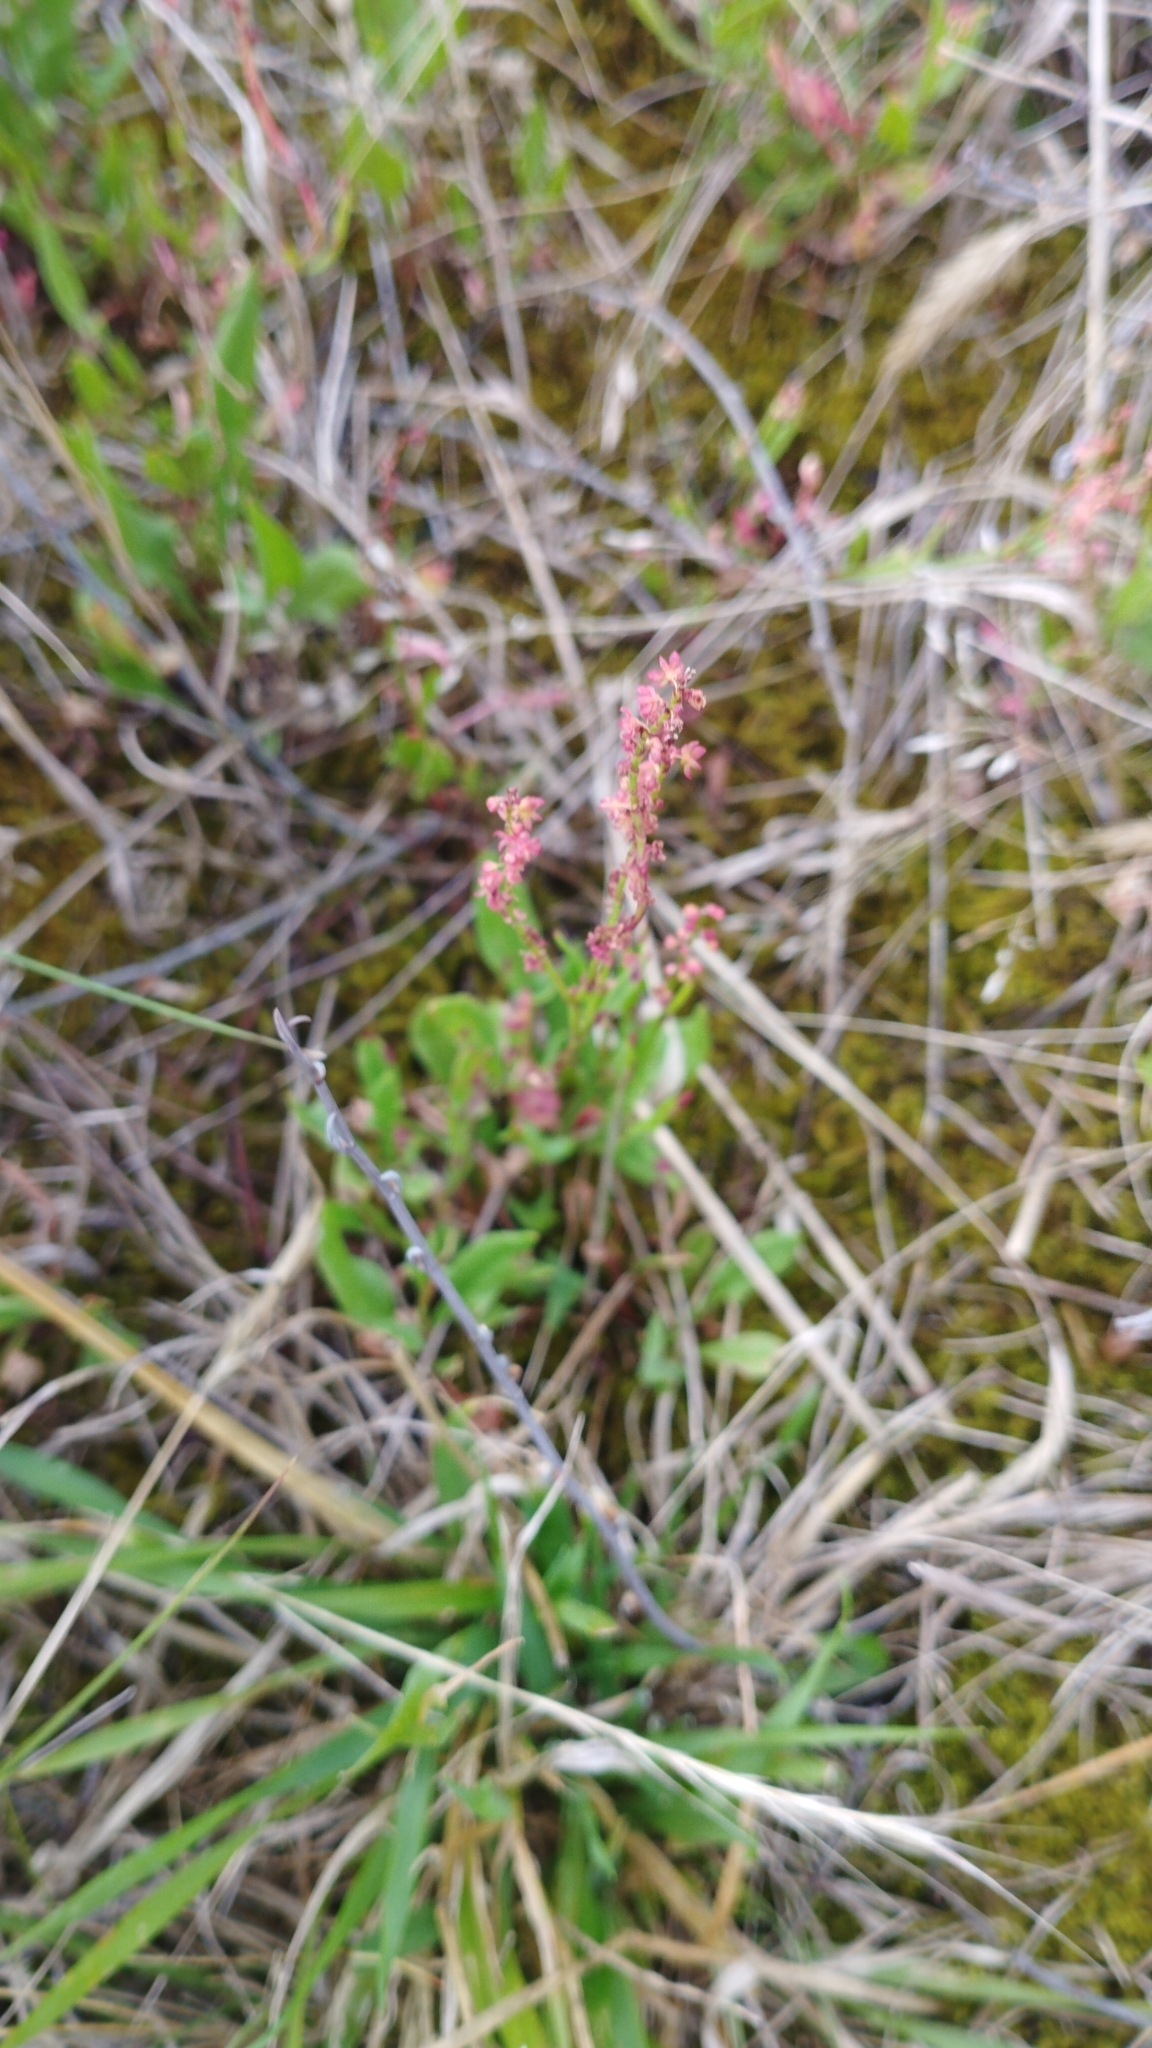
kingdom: Plantae
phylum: Tracheophyta
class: Magnoliopsida
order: Caryophyllales
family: Polygonaceae
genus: Rumex
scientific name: Rumex acetosella
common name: Common sheep sorrel
